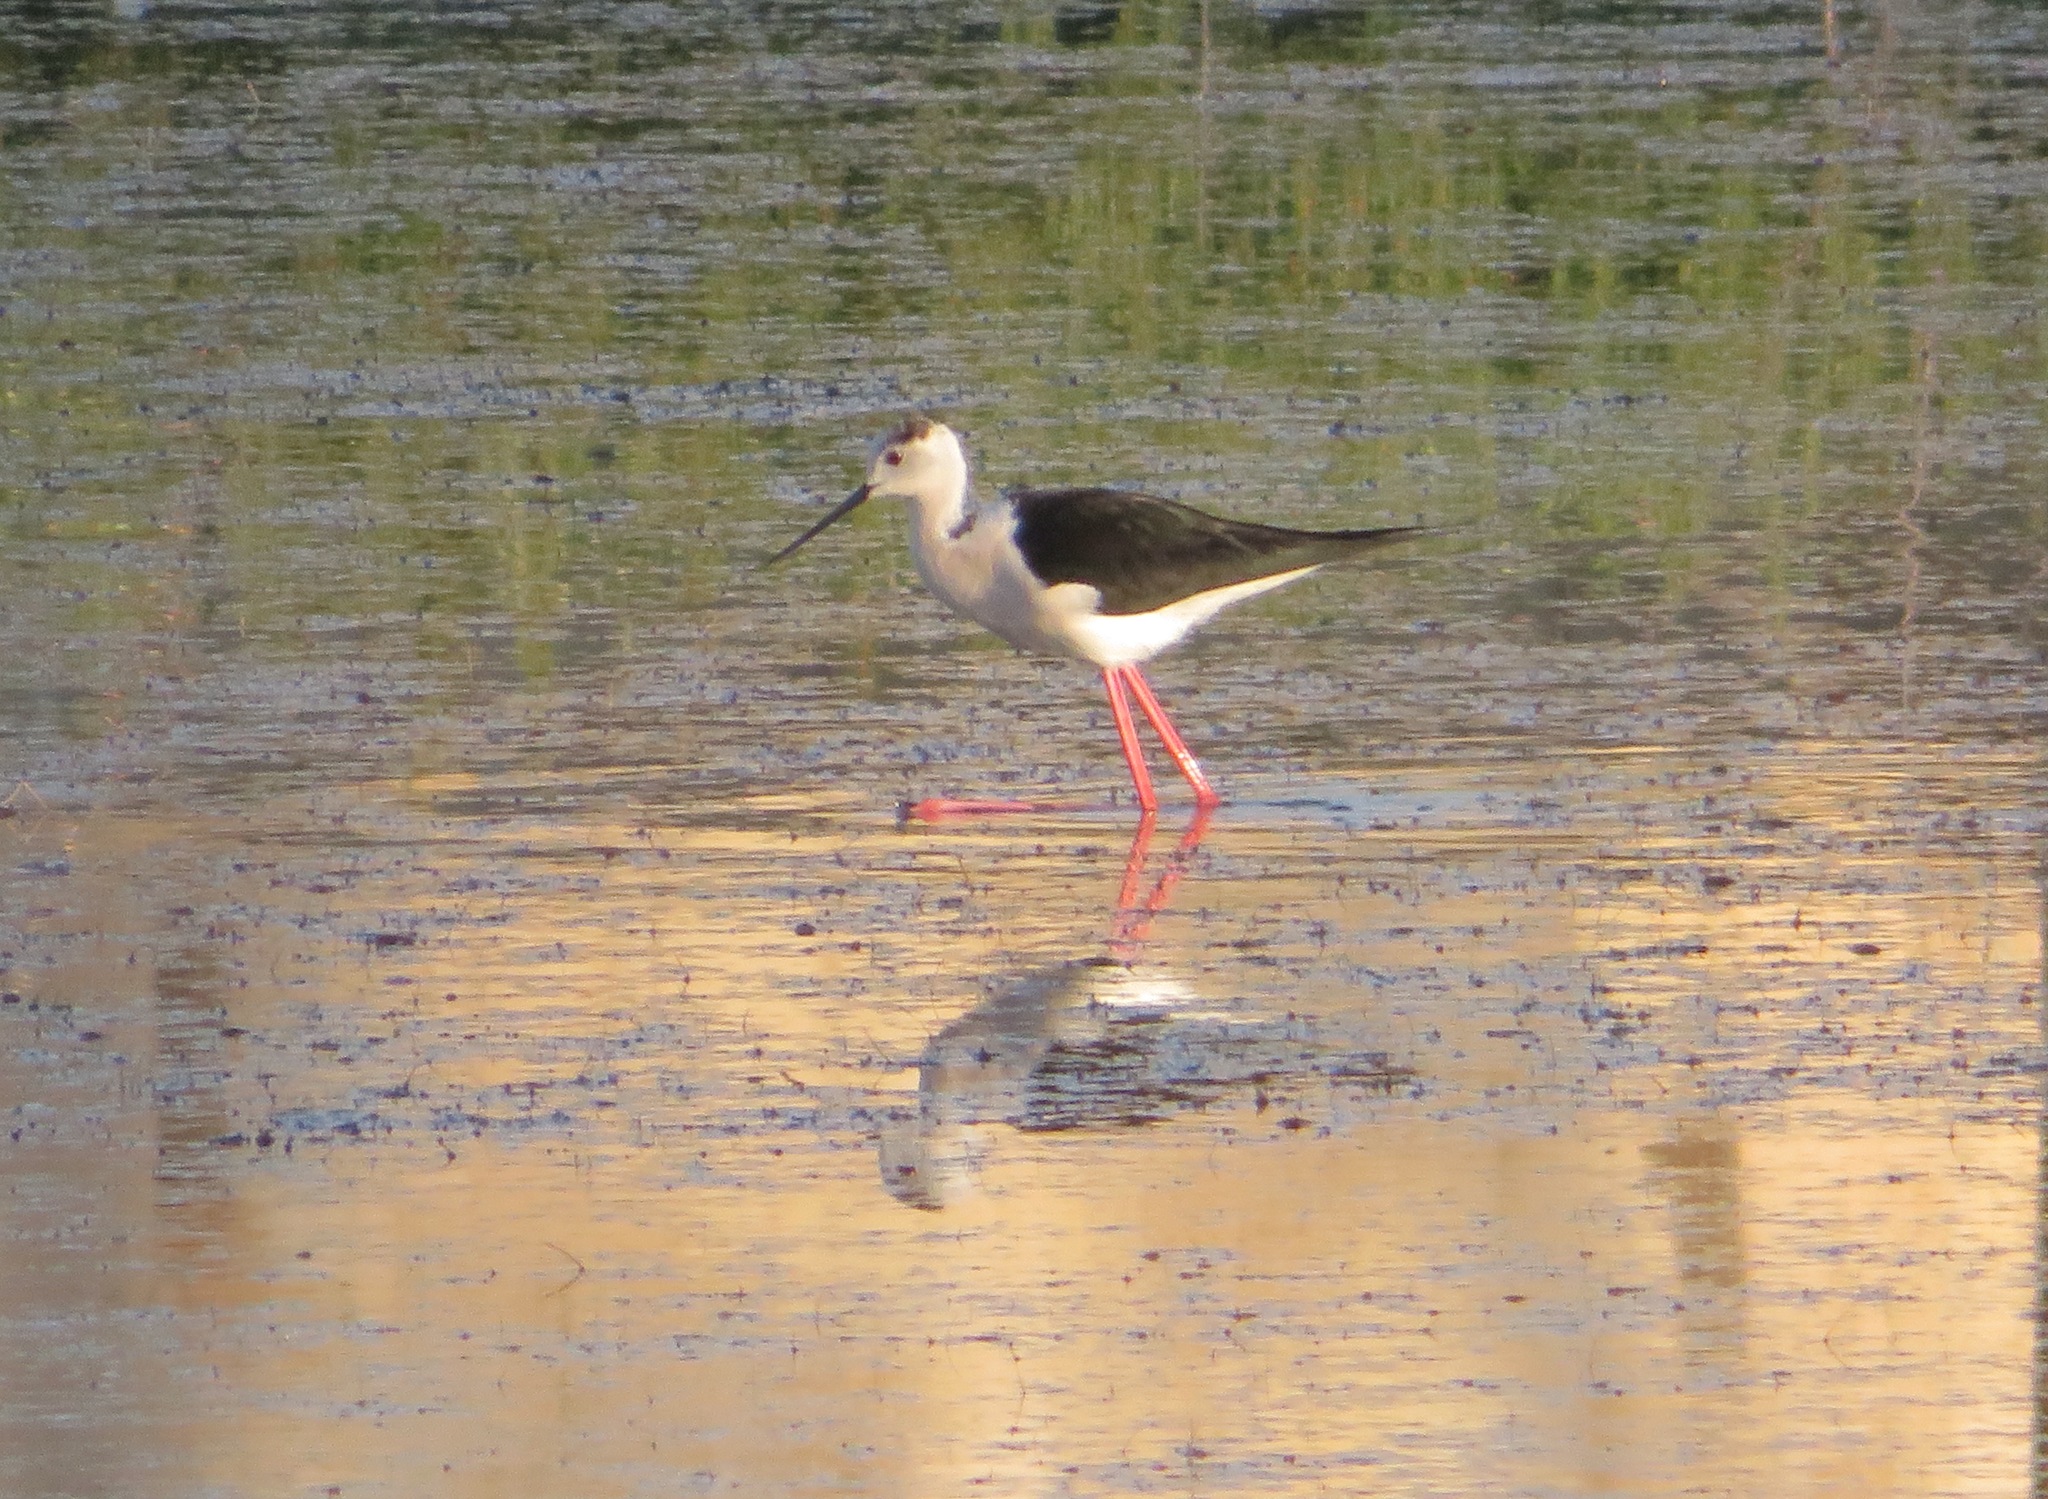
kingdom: Animalia
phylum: Chordata
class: Aves
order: Charadriiformes
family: Recurvirostridae
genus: Himantopus
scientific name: Himantopus himantopus
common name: Black-winged stilt
